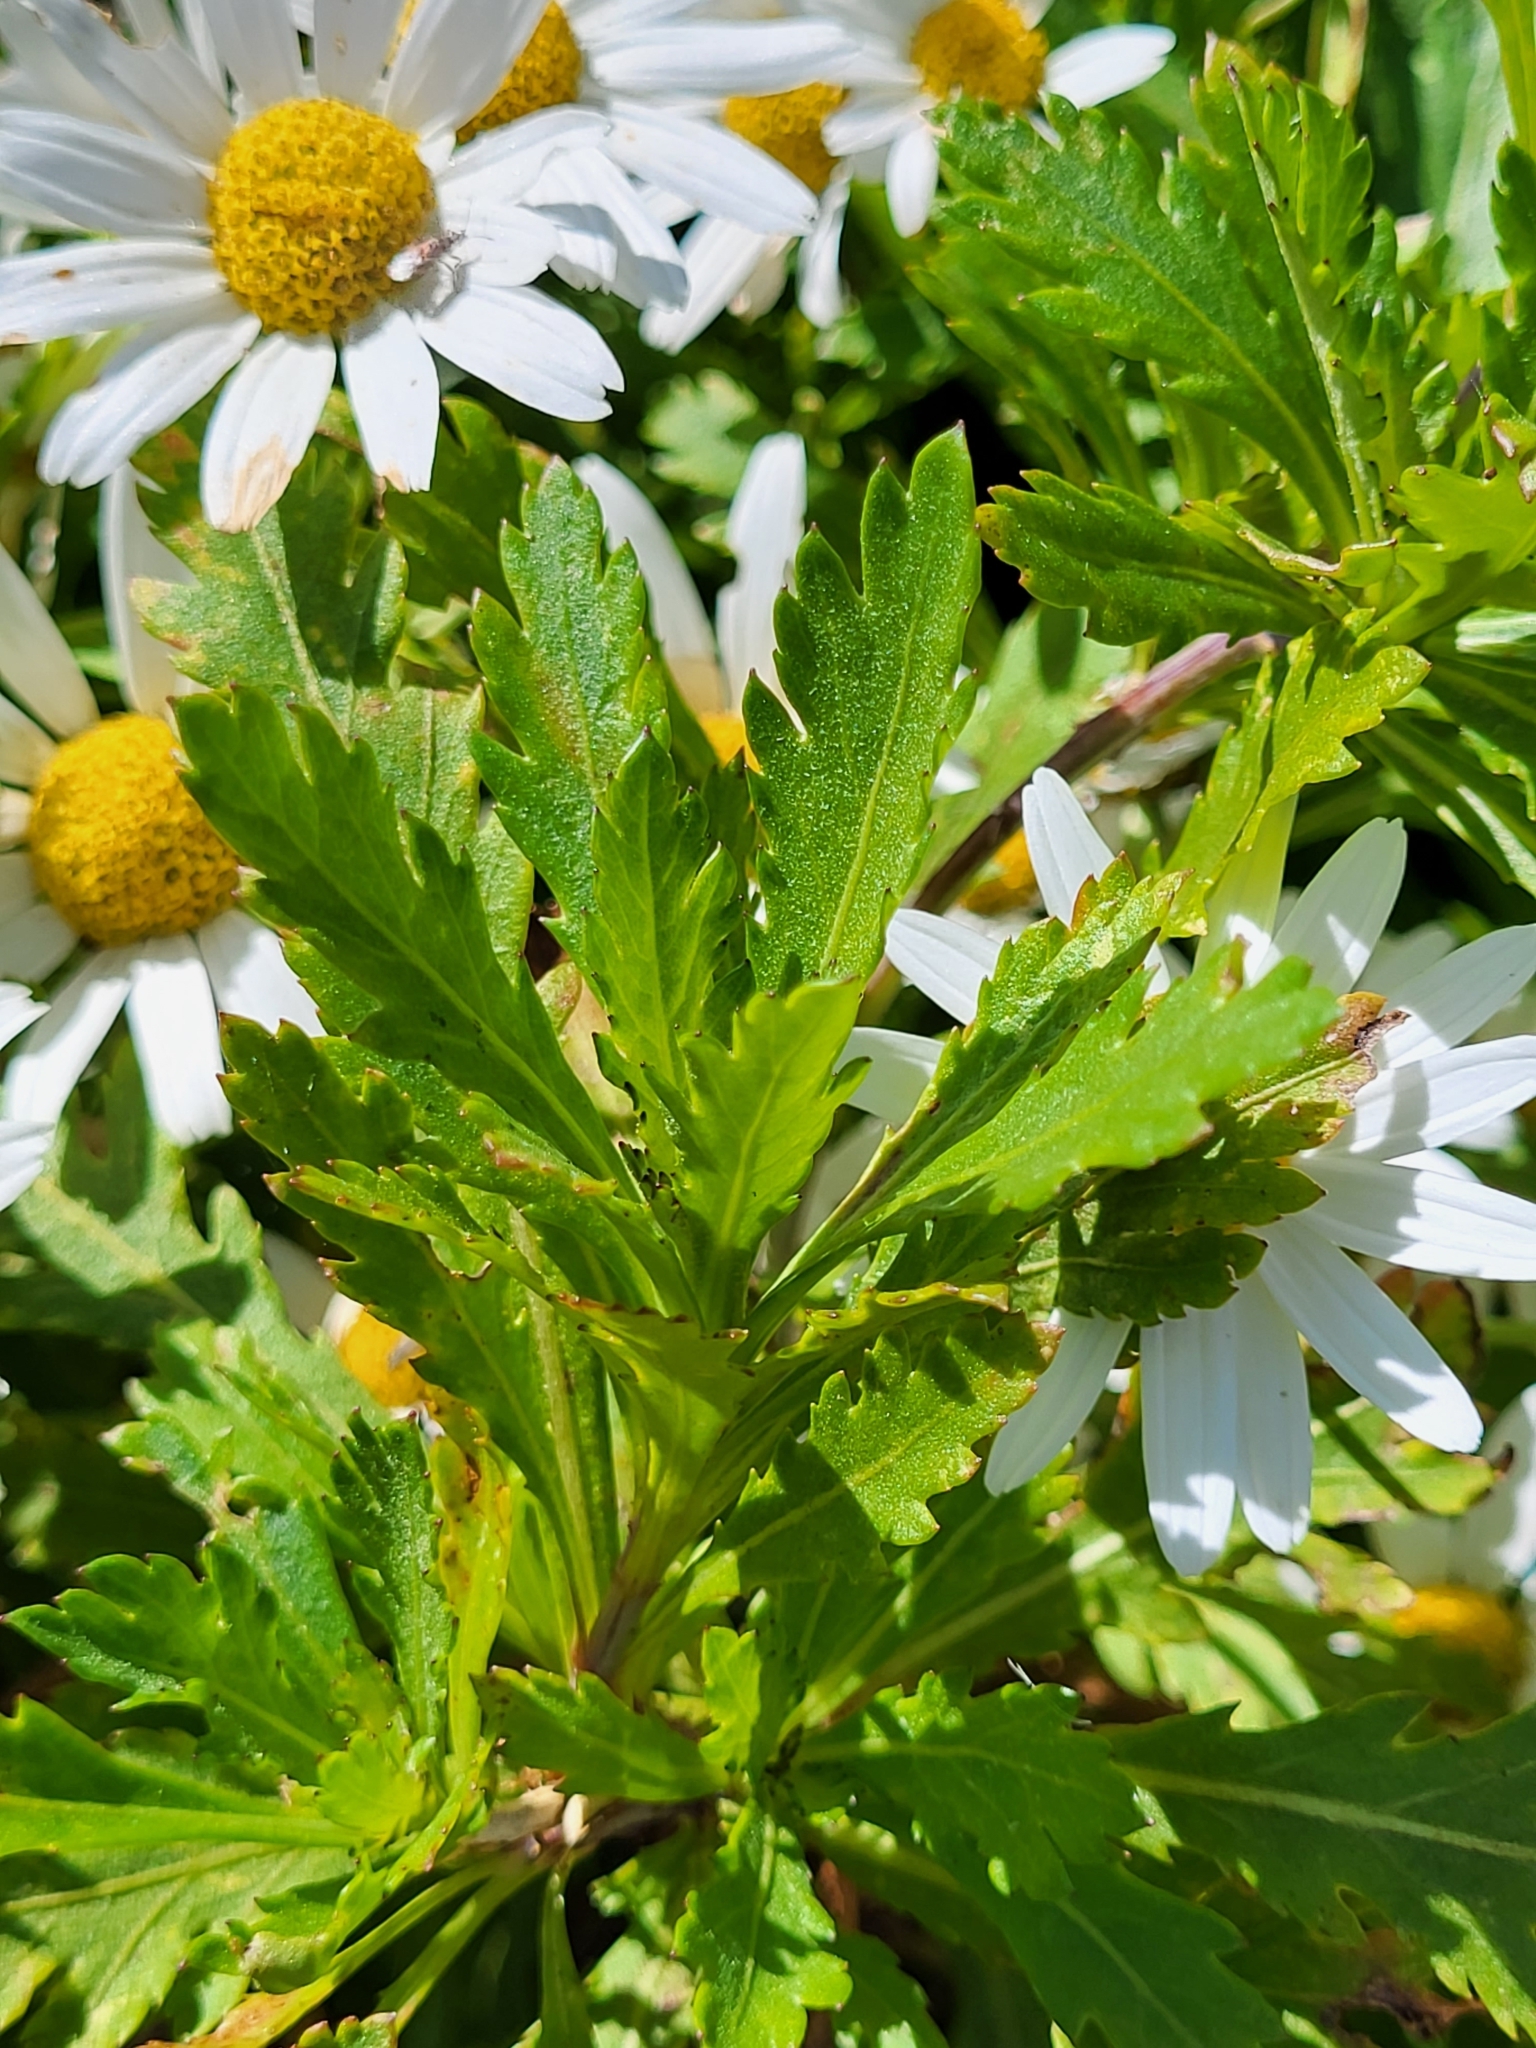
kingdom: Plantae
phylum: Tracheophyta
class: Magnoliopsida
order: Asterales
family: Asteraceae
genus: Argyranthemum
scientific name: Argyranthemum pinnatifidum
